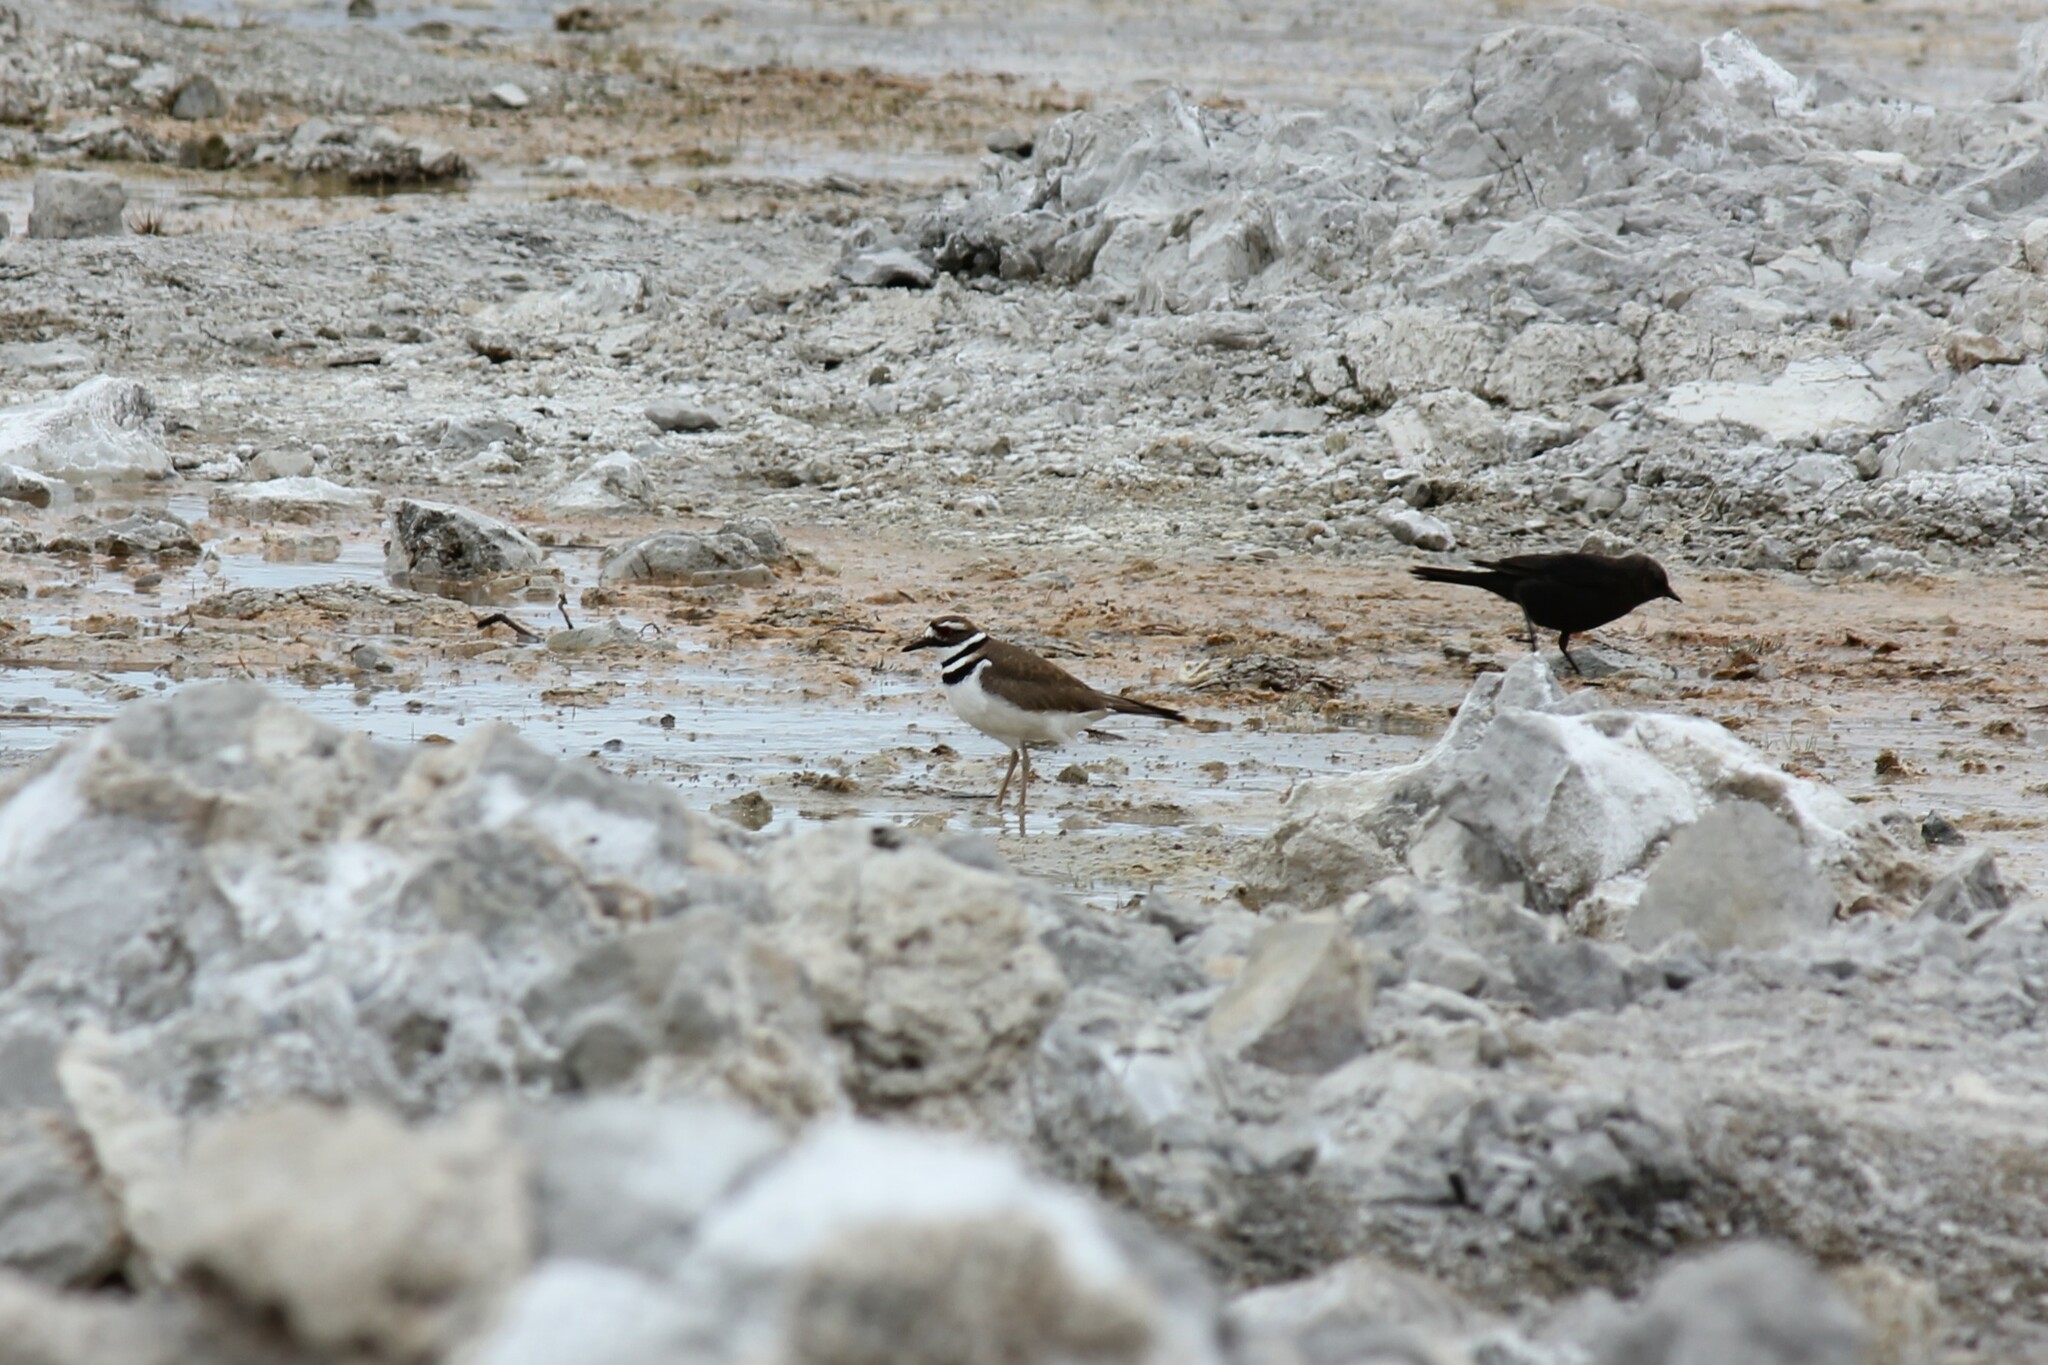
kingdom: Animalia
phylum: Chordata
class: Aves
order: Charadriiformes
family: Charadriidae
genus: Charadrius
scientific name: Charadrius vociferus
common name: Killdeer
